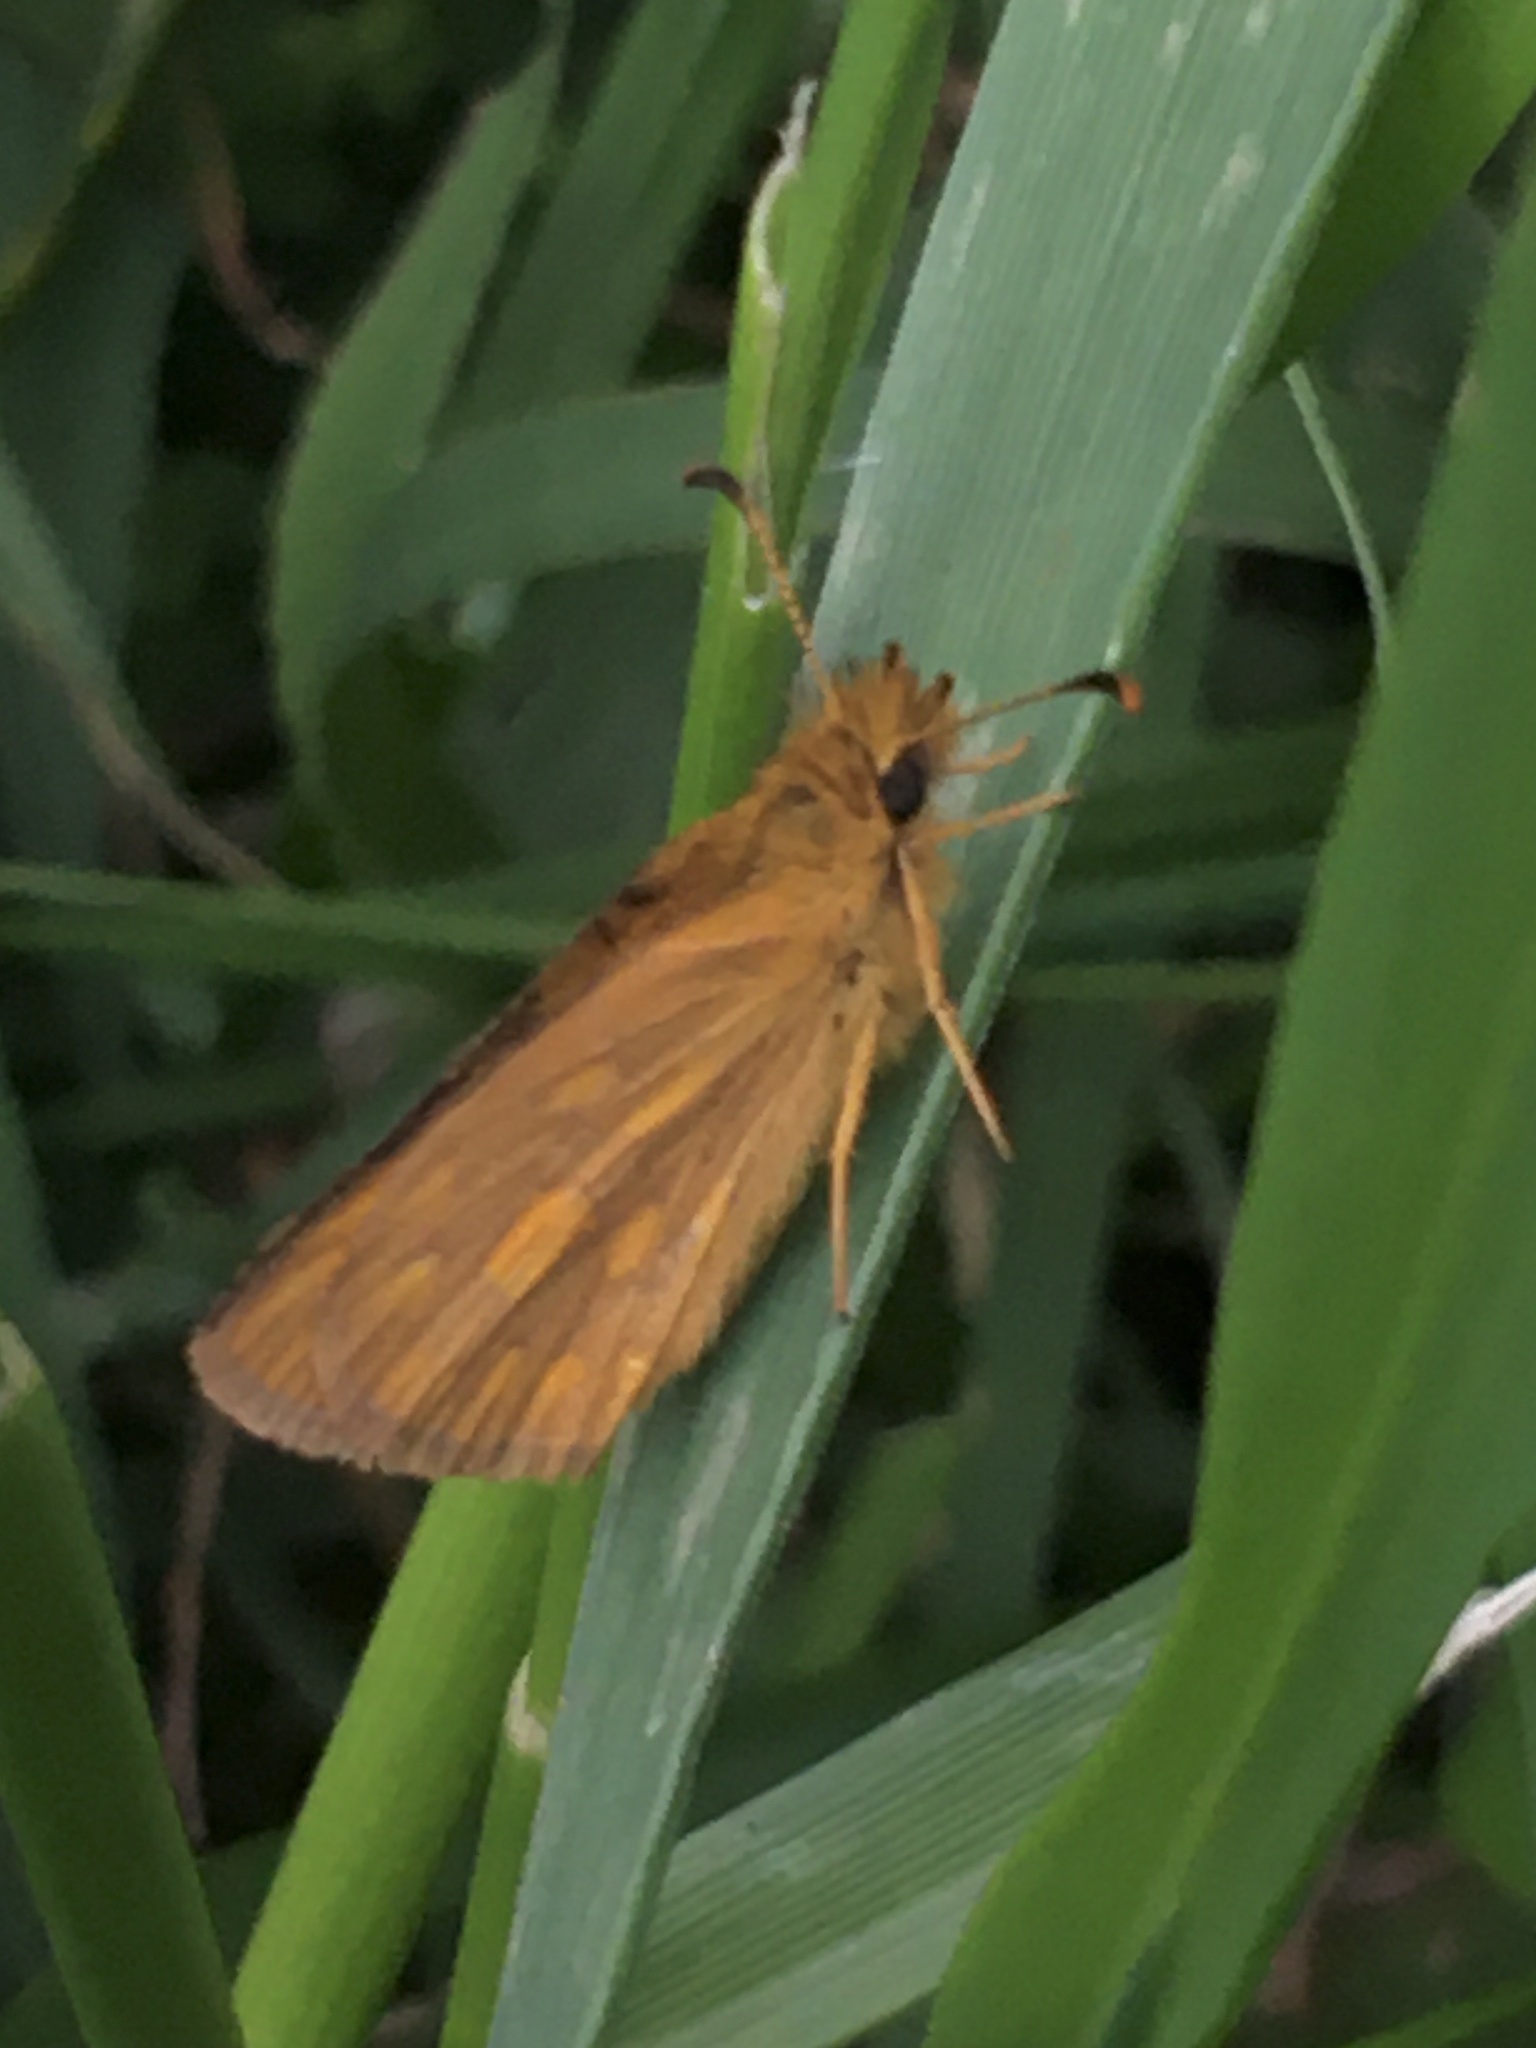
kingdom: Animalia
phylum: Arthropoda
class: Insecta
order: Lepidoptera
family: Hesperiidae
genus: Metisella
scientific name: Metisella malgacha
